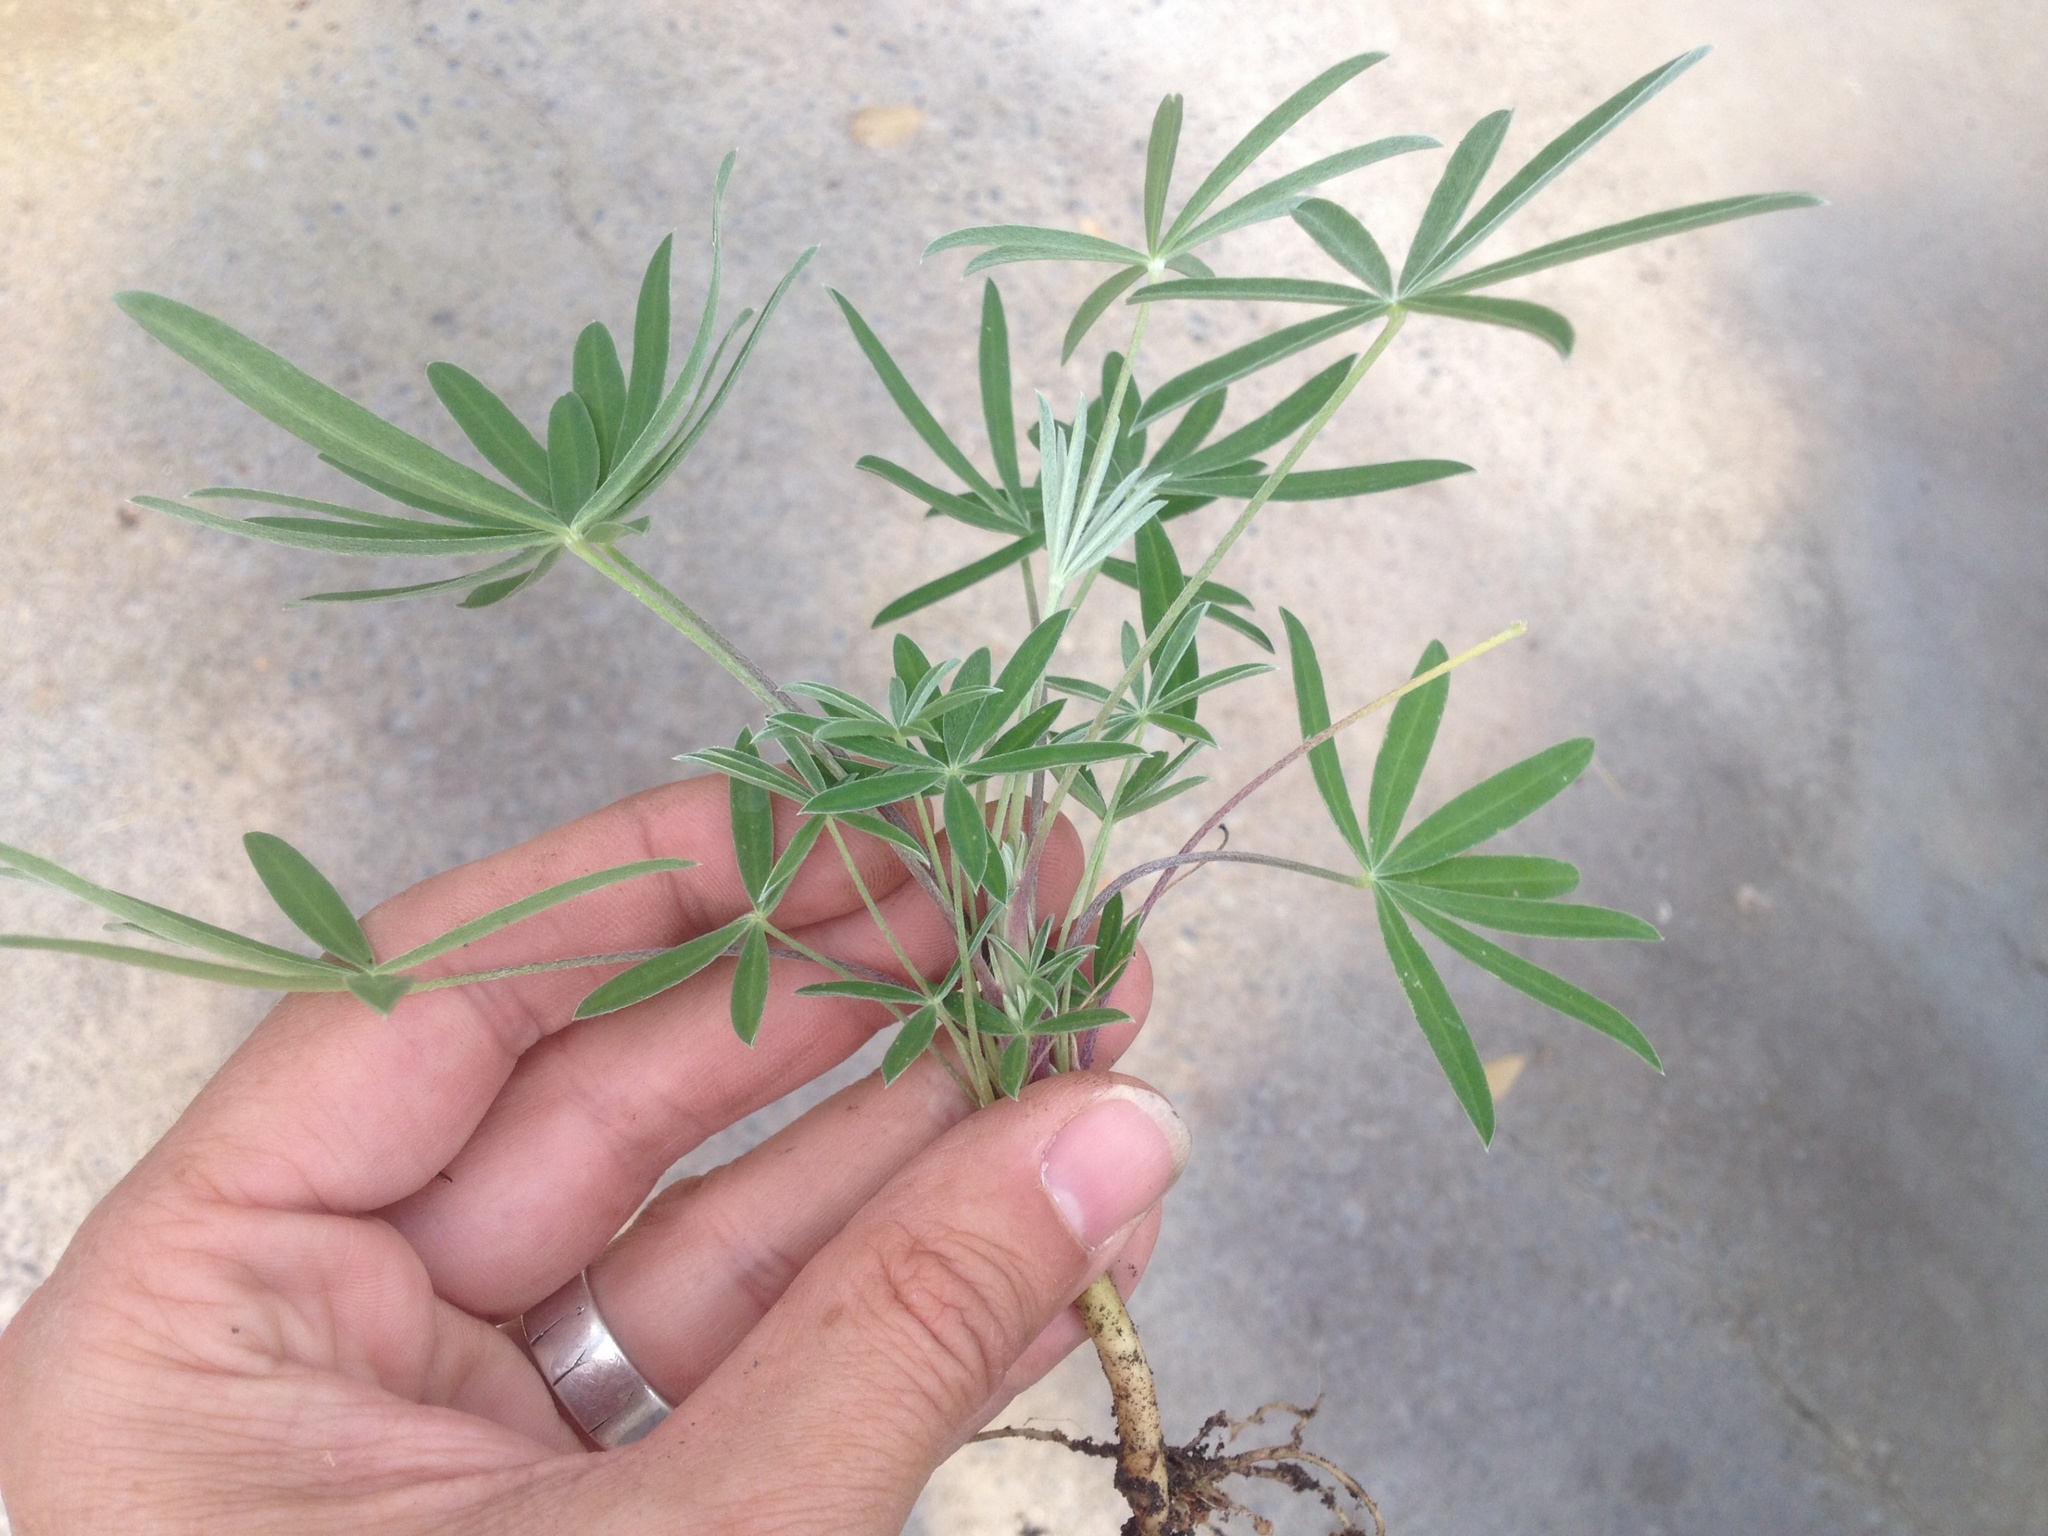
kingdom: Plantae
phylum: Tracheophyta
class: Magnoliopsida
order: Fabales
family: Fabaceae
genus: Lupinus
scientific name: Lupinus arboreus
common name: Yellow bush lupine
